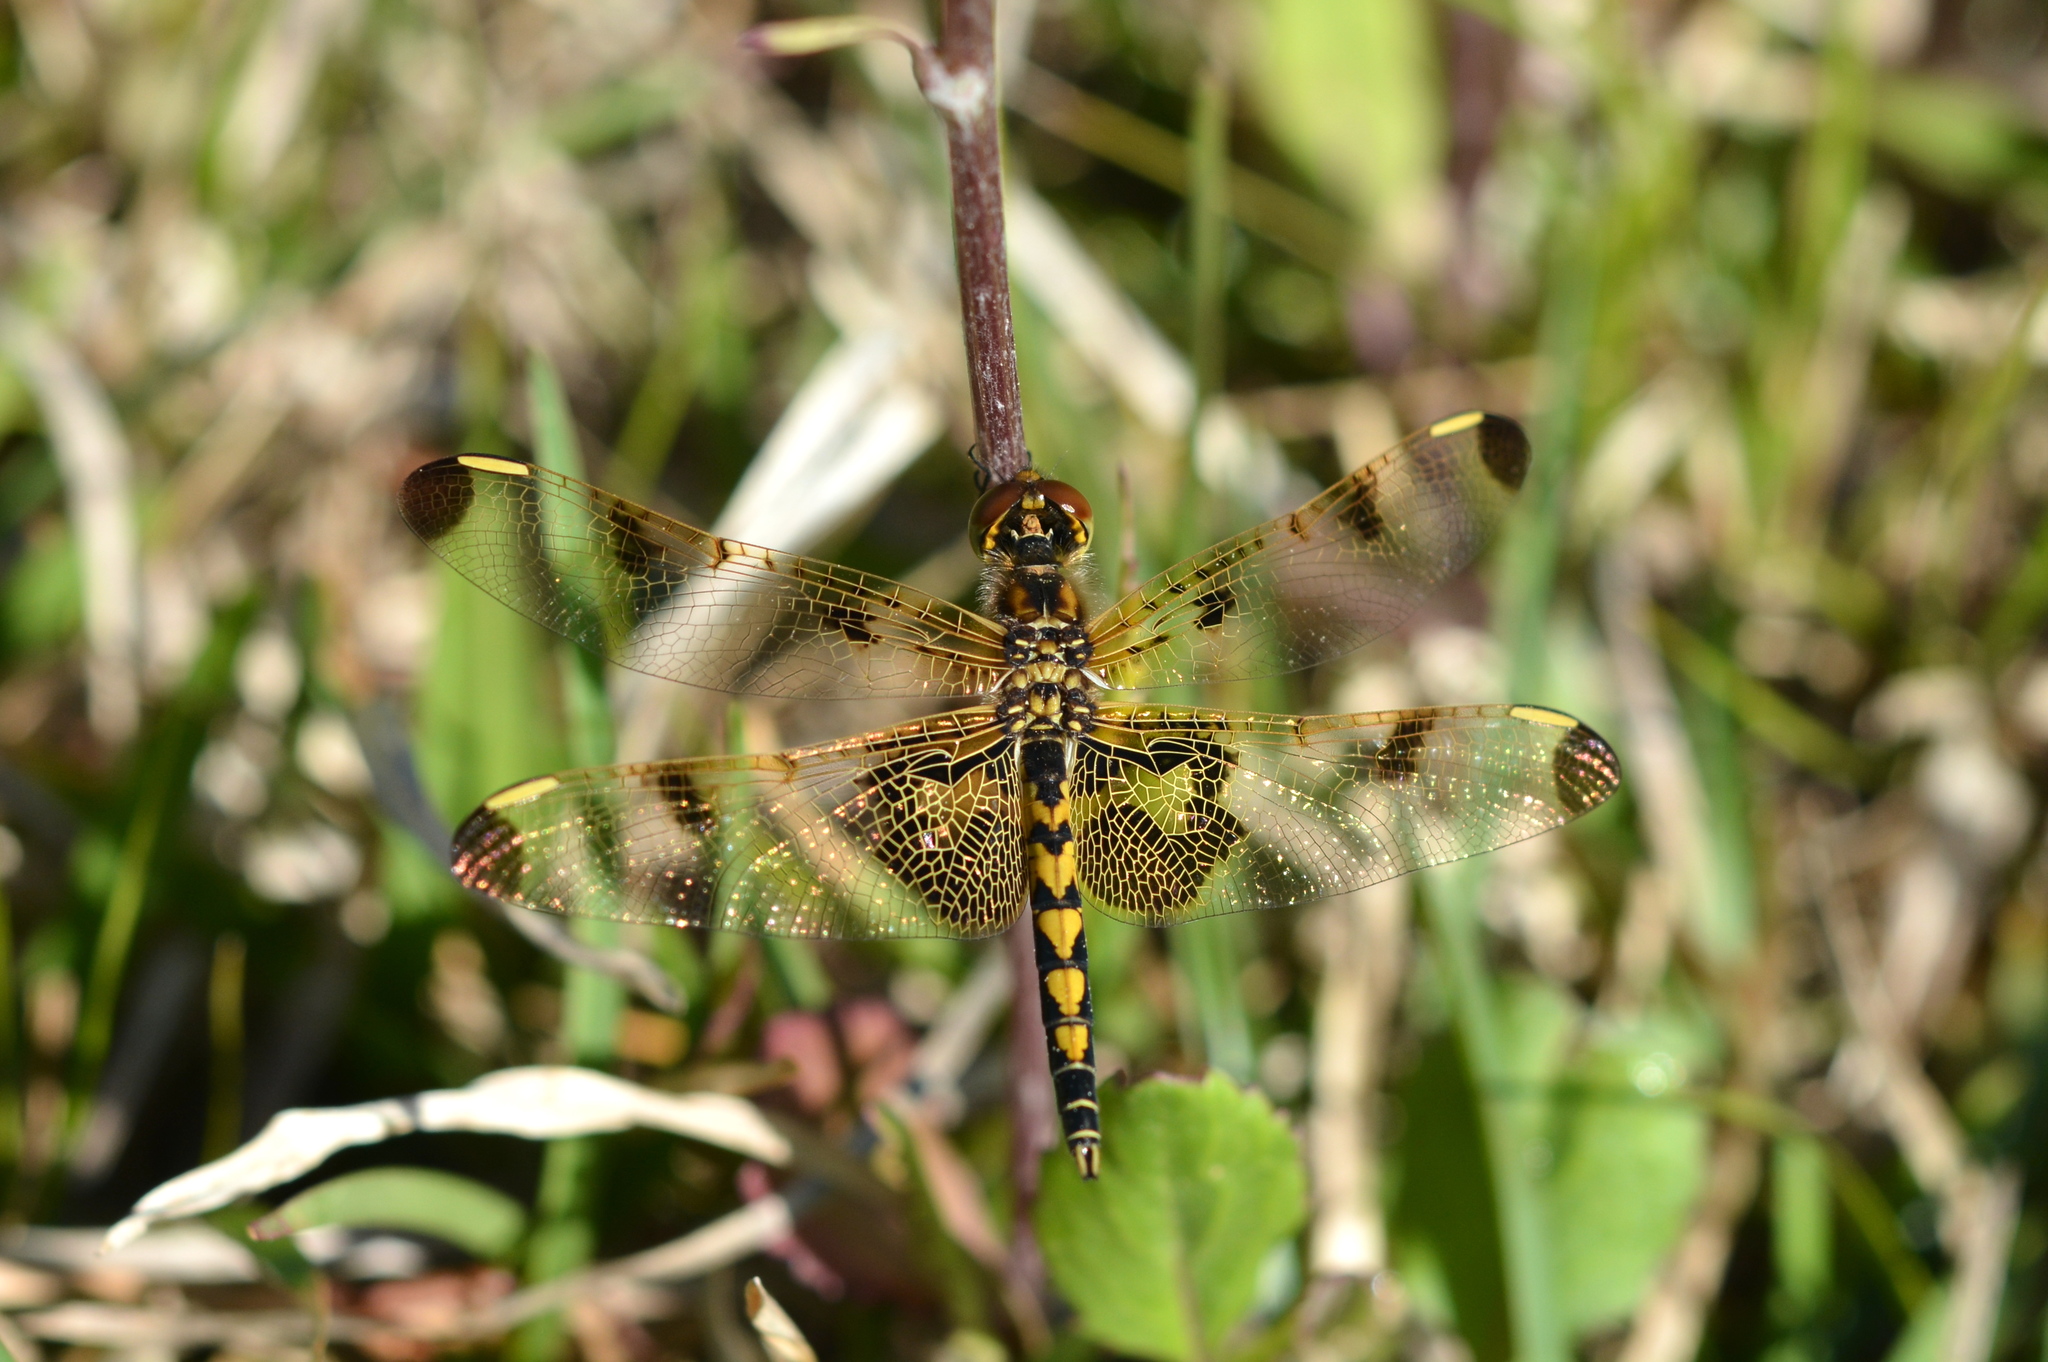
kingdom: Animalia
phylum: Arthropoda
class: Insecta
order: Odonata
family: Libellulidae
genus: Celithemis
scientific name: Celithemis elisa
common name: Calico pennant
